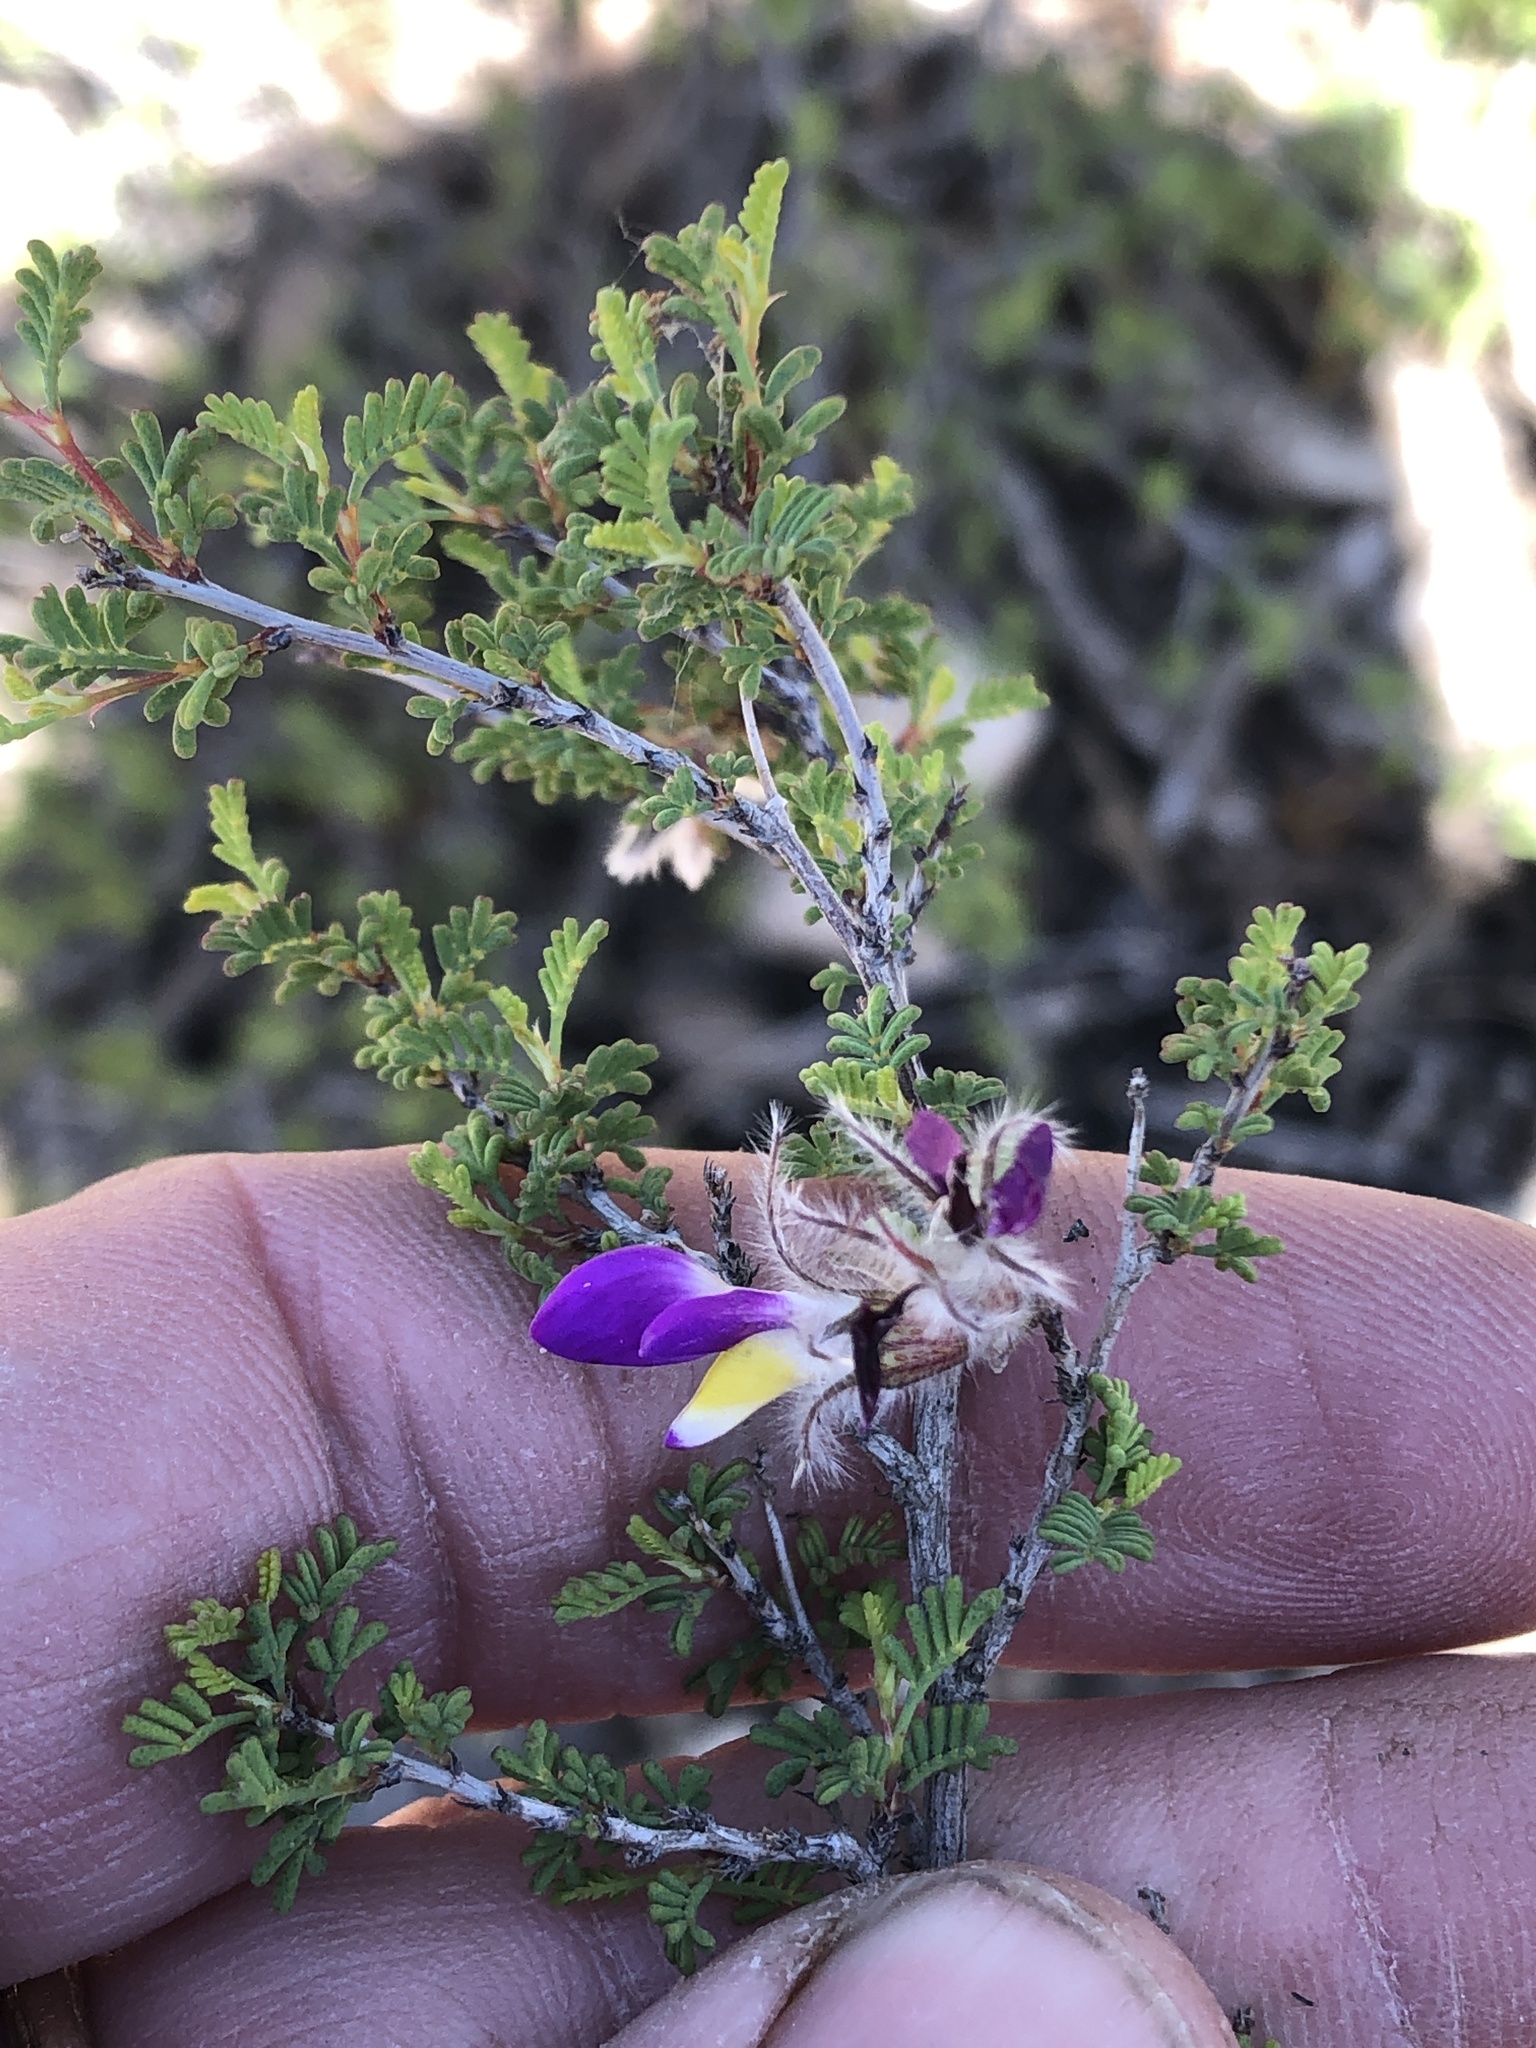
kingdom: Plantae
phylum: Tracheophyta
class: Magnoliopsida
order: Fabales
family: Fabaceae
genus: Dalea
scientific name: Dalea formosa
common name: Feather-plume dalea
